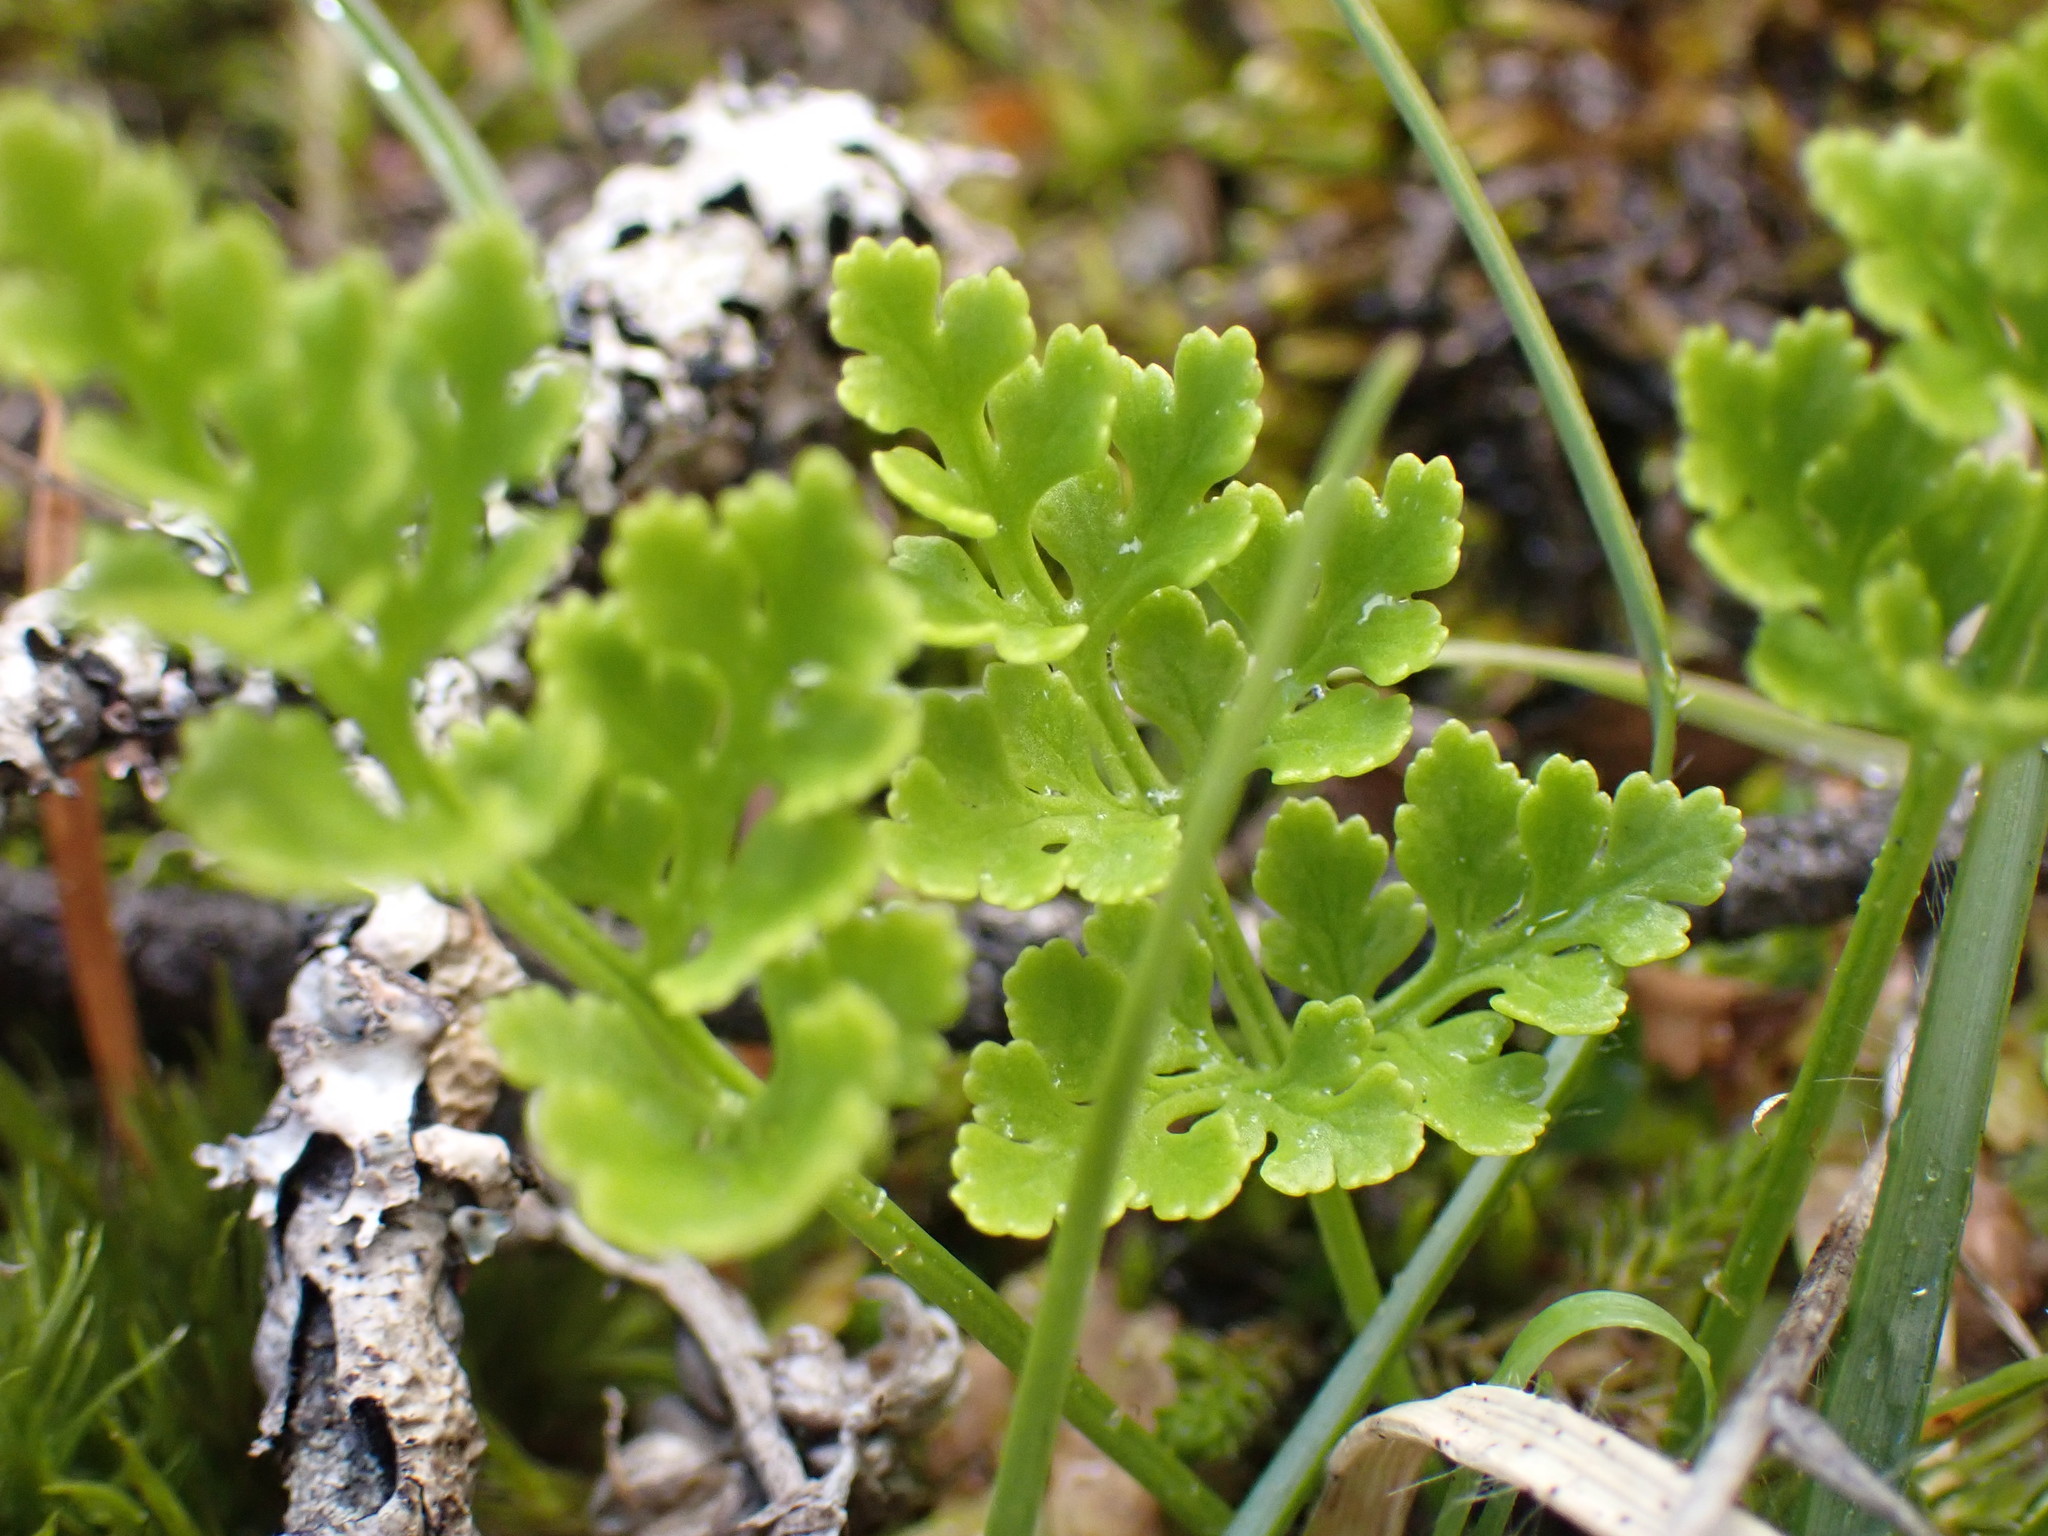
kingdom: Plantae
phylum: Tracheophyta
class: Polypodiopsida
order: Polypodiales
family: Pteridaceae
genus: Cryptogramma
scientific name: Cryptogramma acrostichoides
